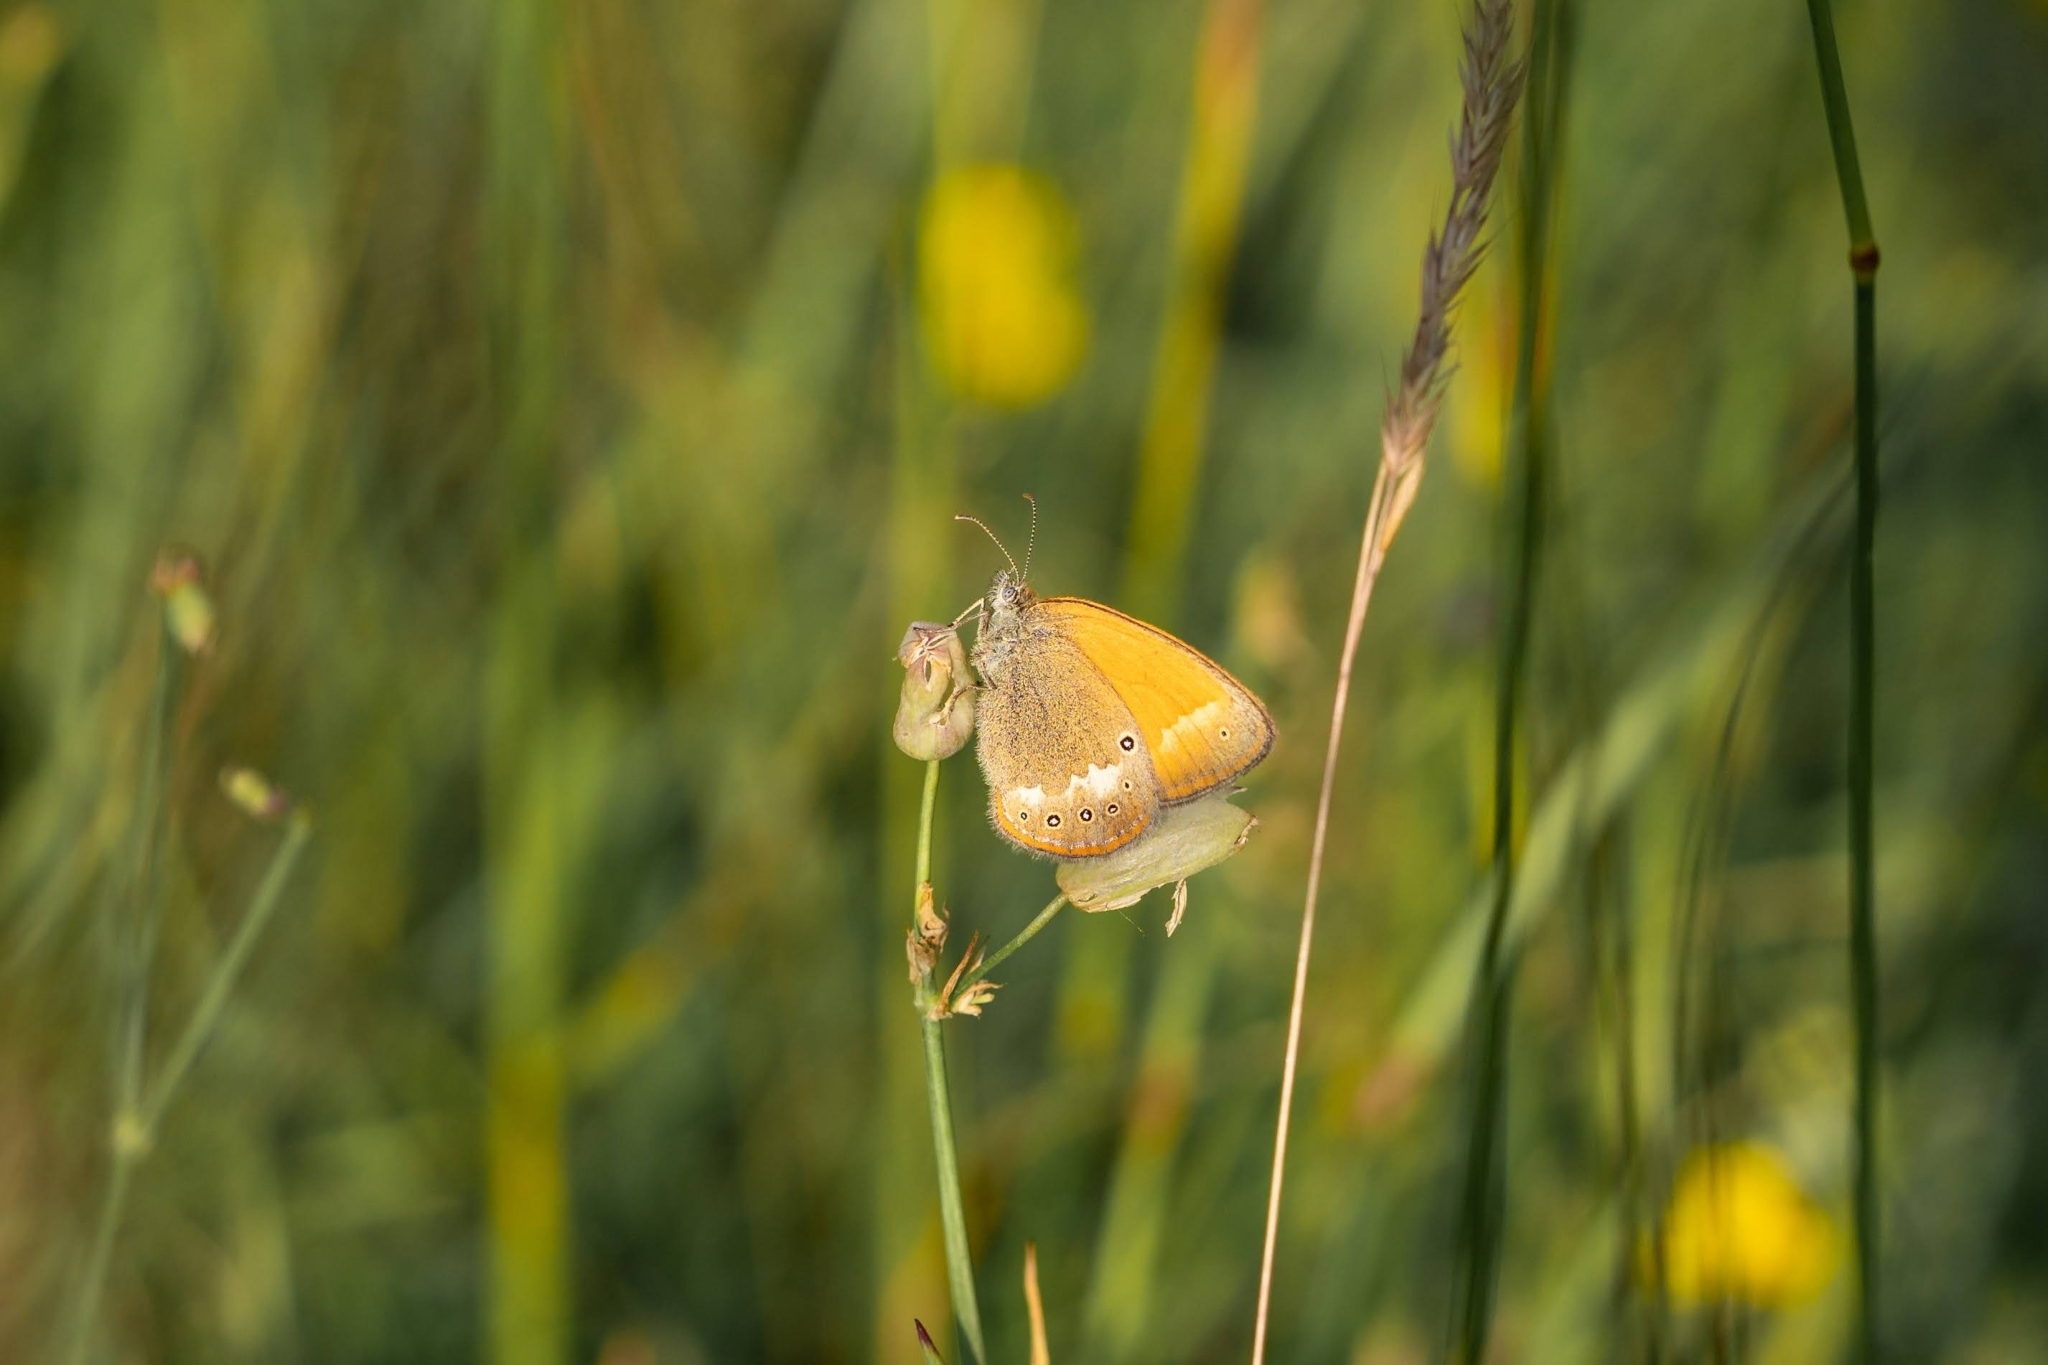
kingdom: Animalia
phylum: Arthropoda
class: Insecta
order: Lepidoptera
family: Nymphalidae
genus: Coenonympha
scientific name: Coenonympha iphis
